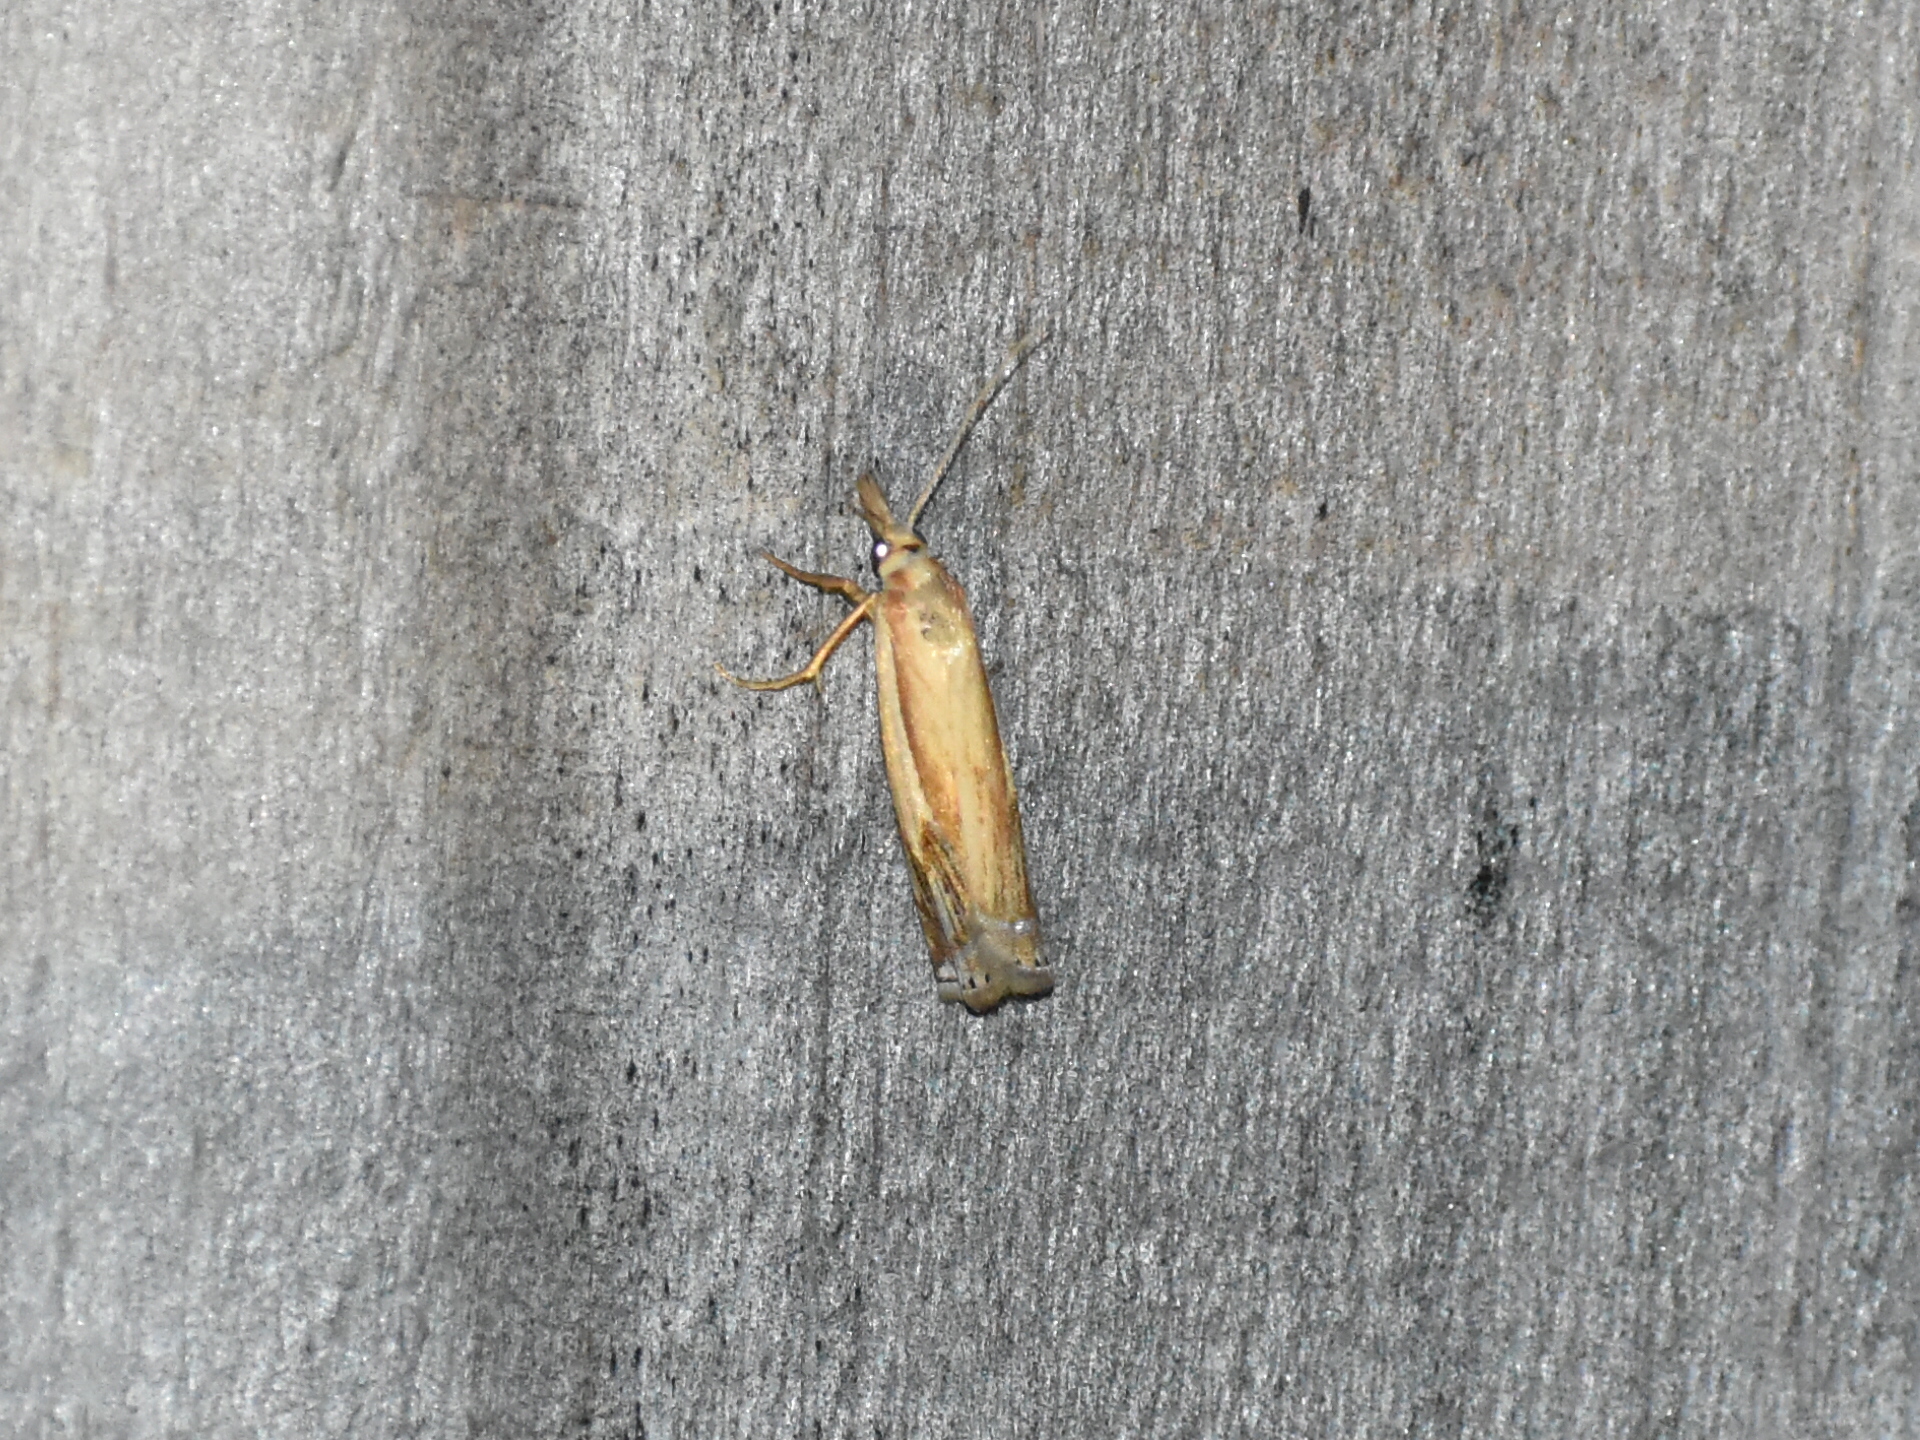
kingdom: Animalia
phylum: Arthropoda
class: Insecta
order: Lepidoptera
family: Crambidae
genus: Crambus
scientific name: Crambus agitatellus
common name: Double-banded grass-veneer
